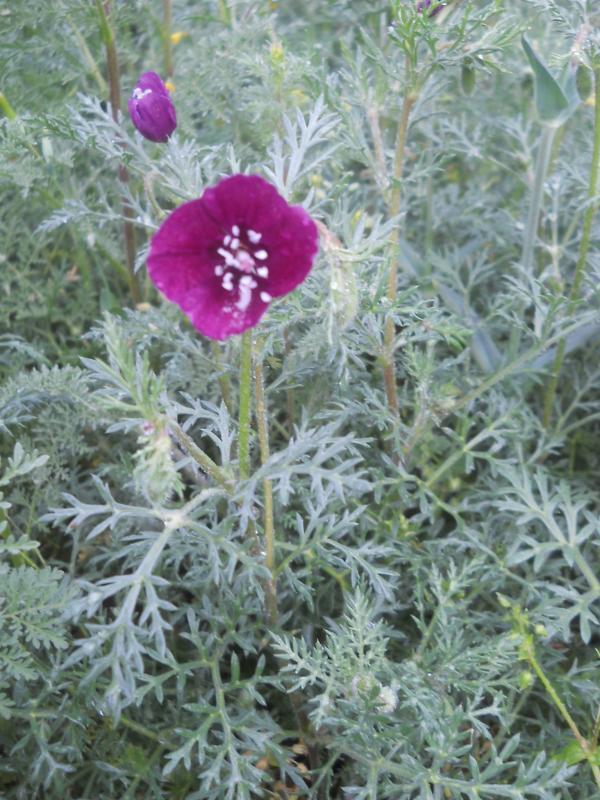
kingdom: Plantae
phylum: Tracheophyta
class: Magnoliopsida
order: Ranunculales
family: Papaveraceae
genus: Roemeria
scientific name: Roemeria hybrida
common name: Violet horned-poppy
